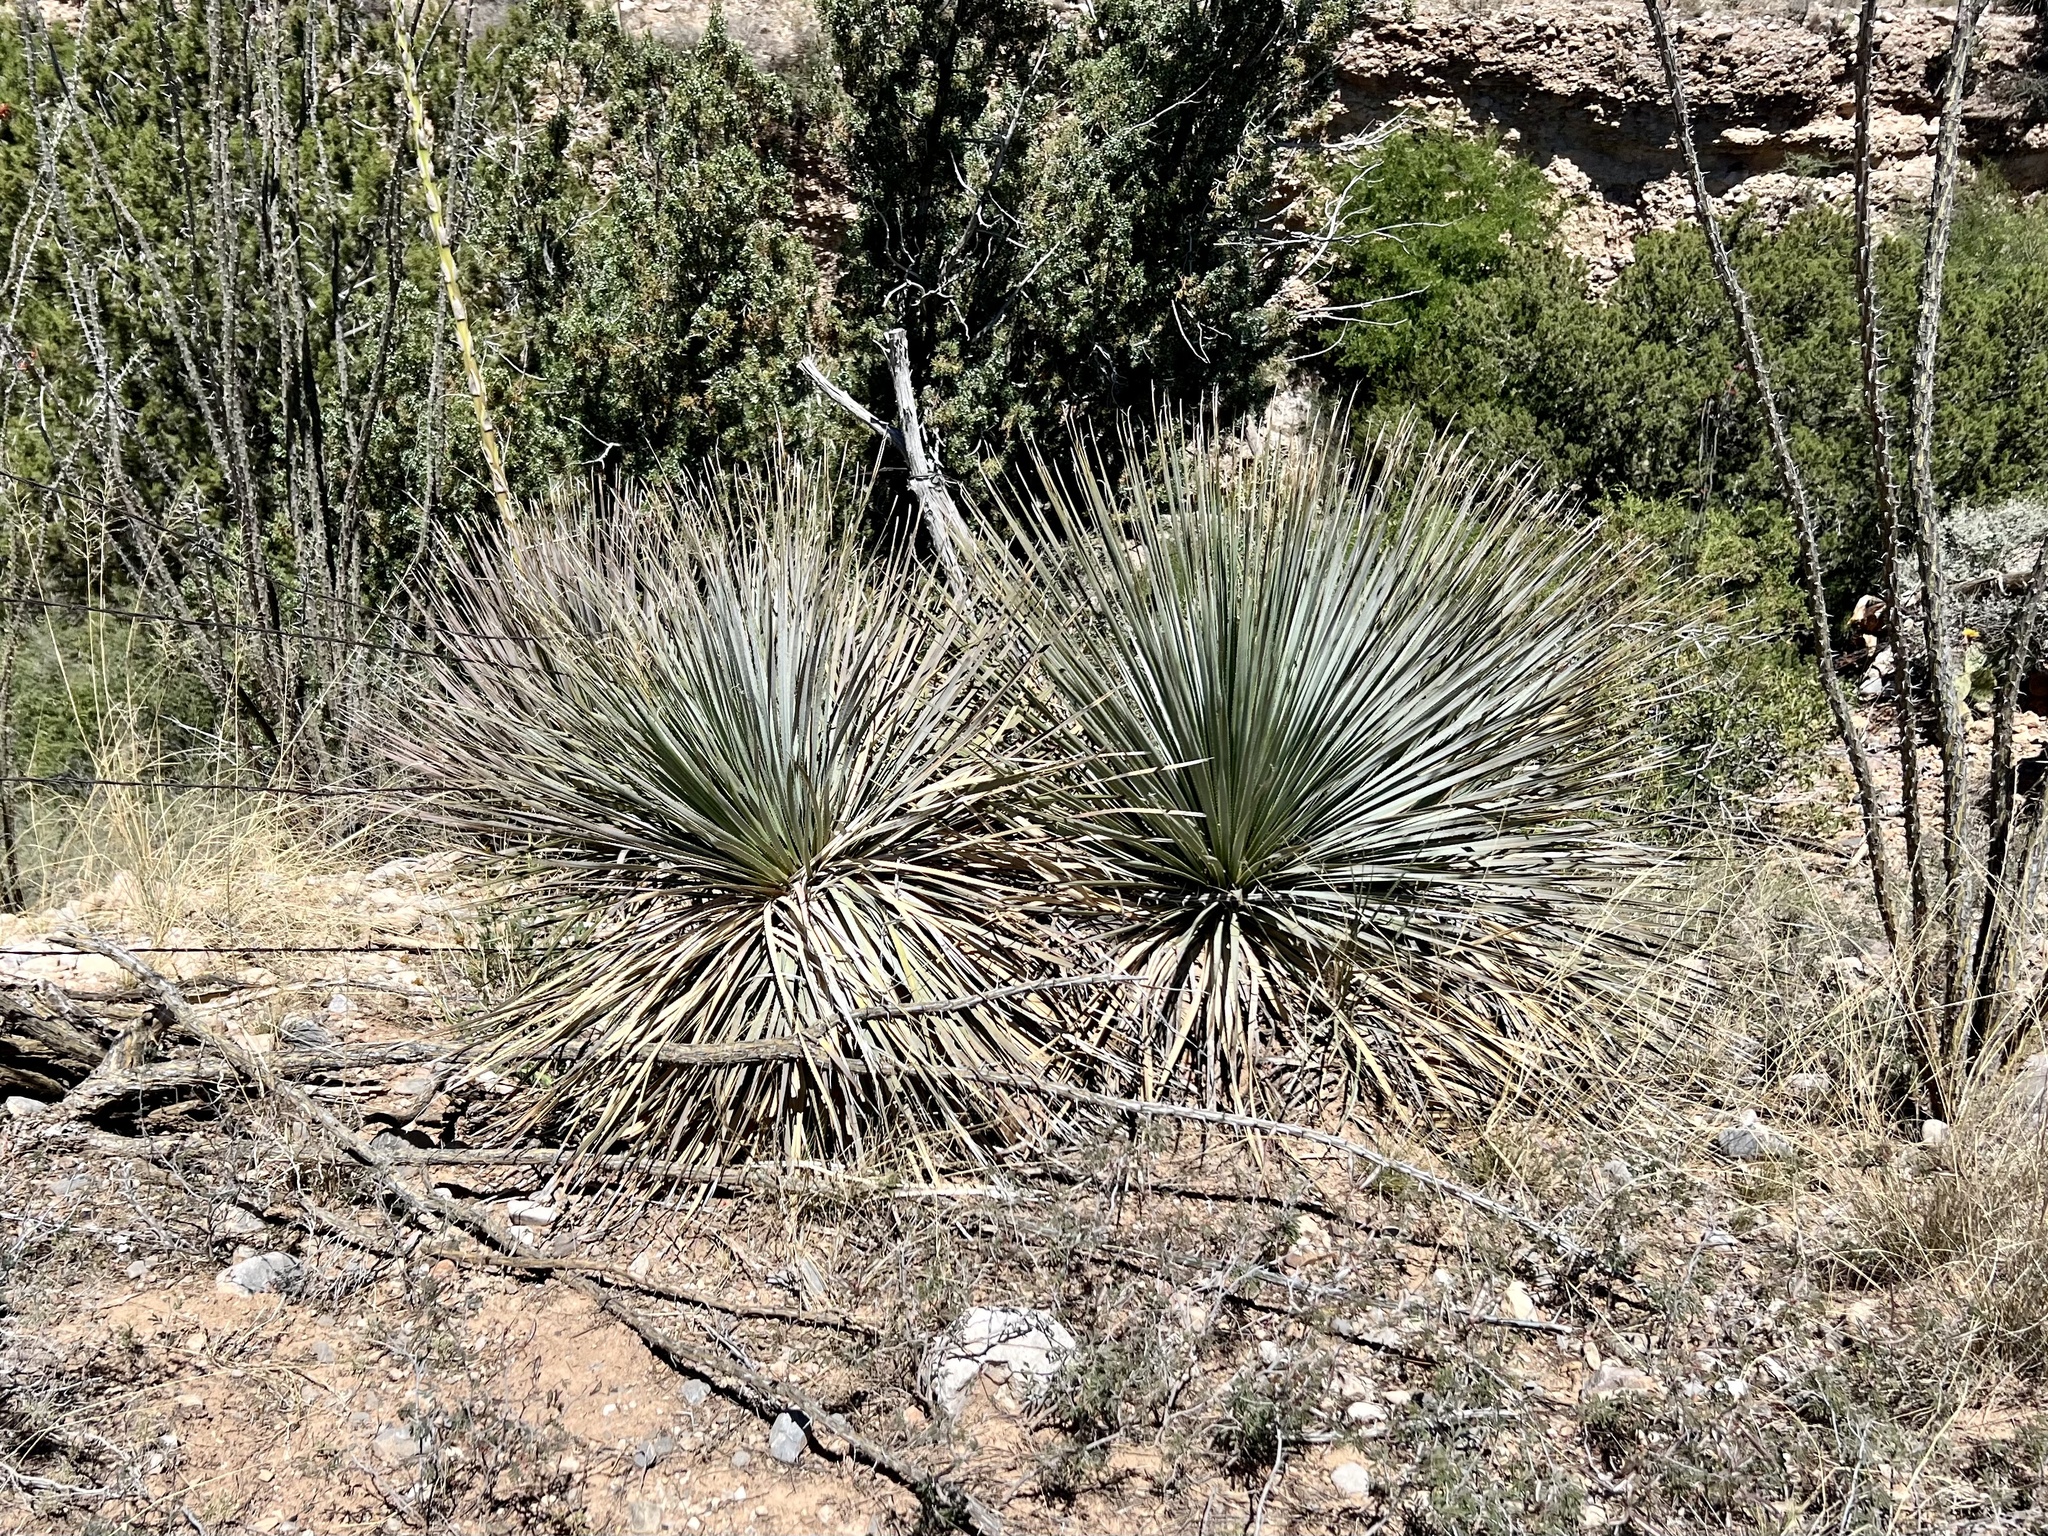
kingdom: Plantae
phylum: Tracheophyta
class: Liliopsida
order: Asparagales
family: Asparagaceae
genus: Dasylirion
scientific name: Dasylirion wheeleri
